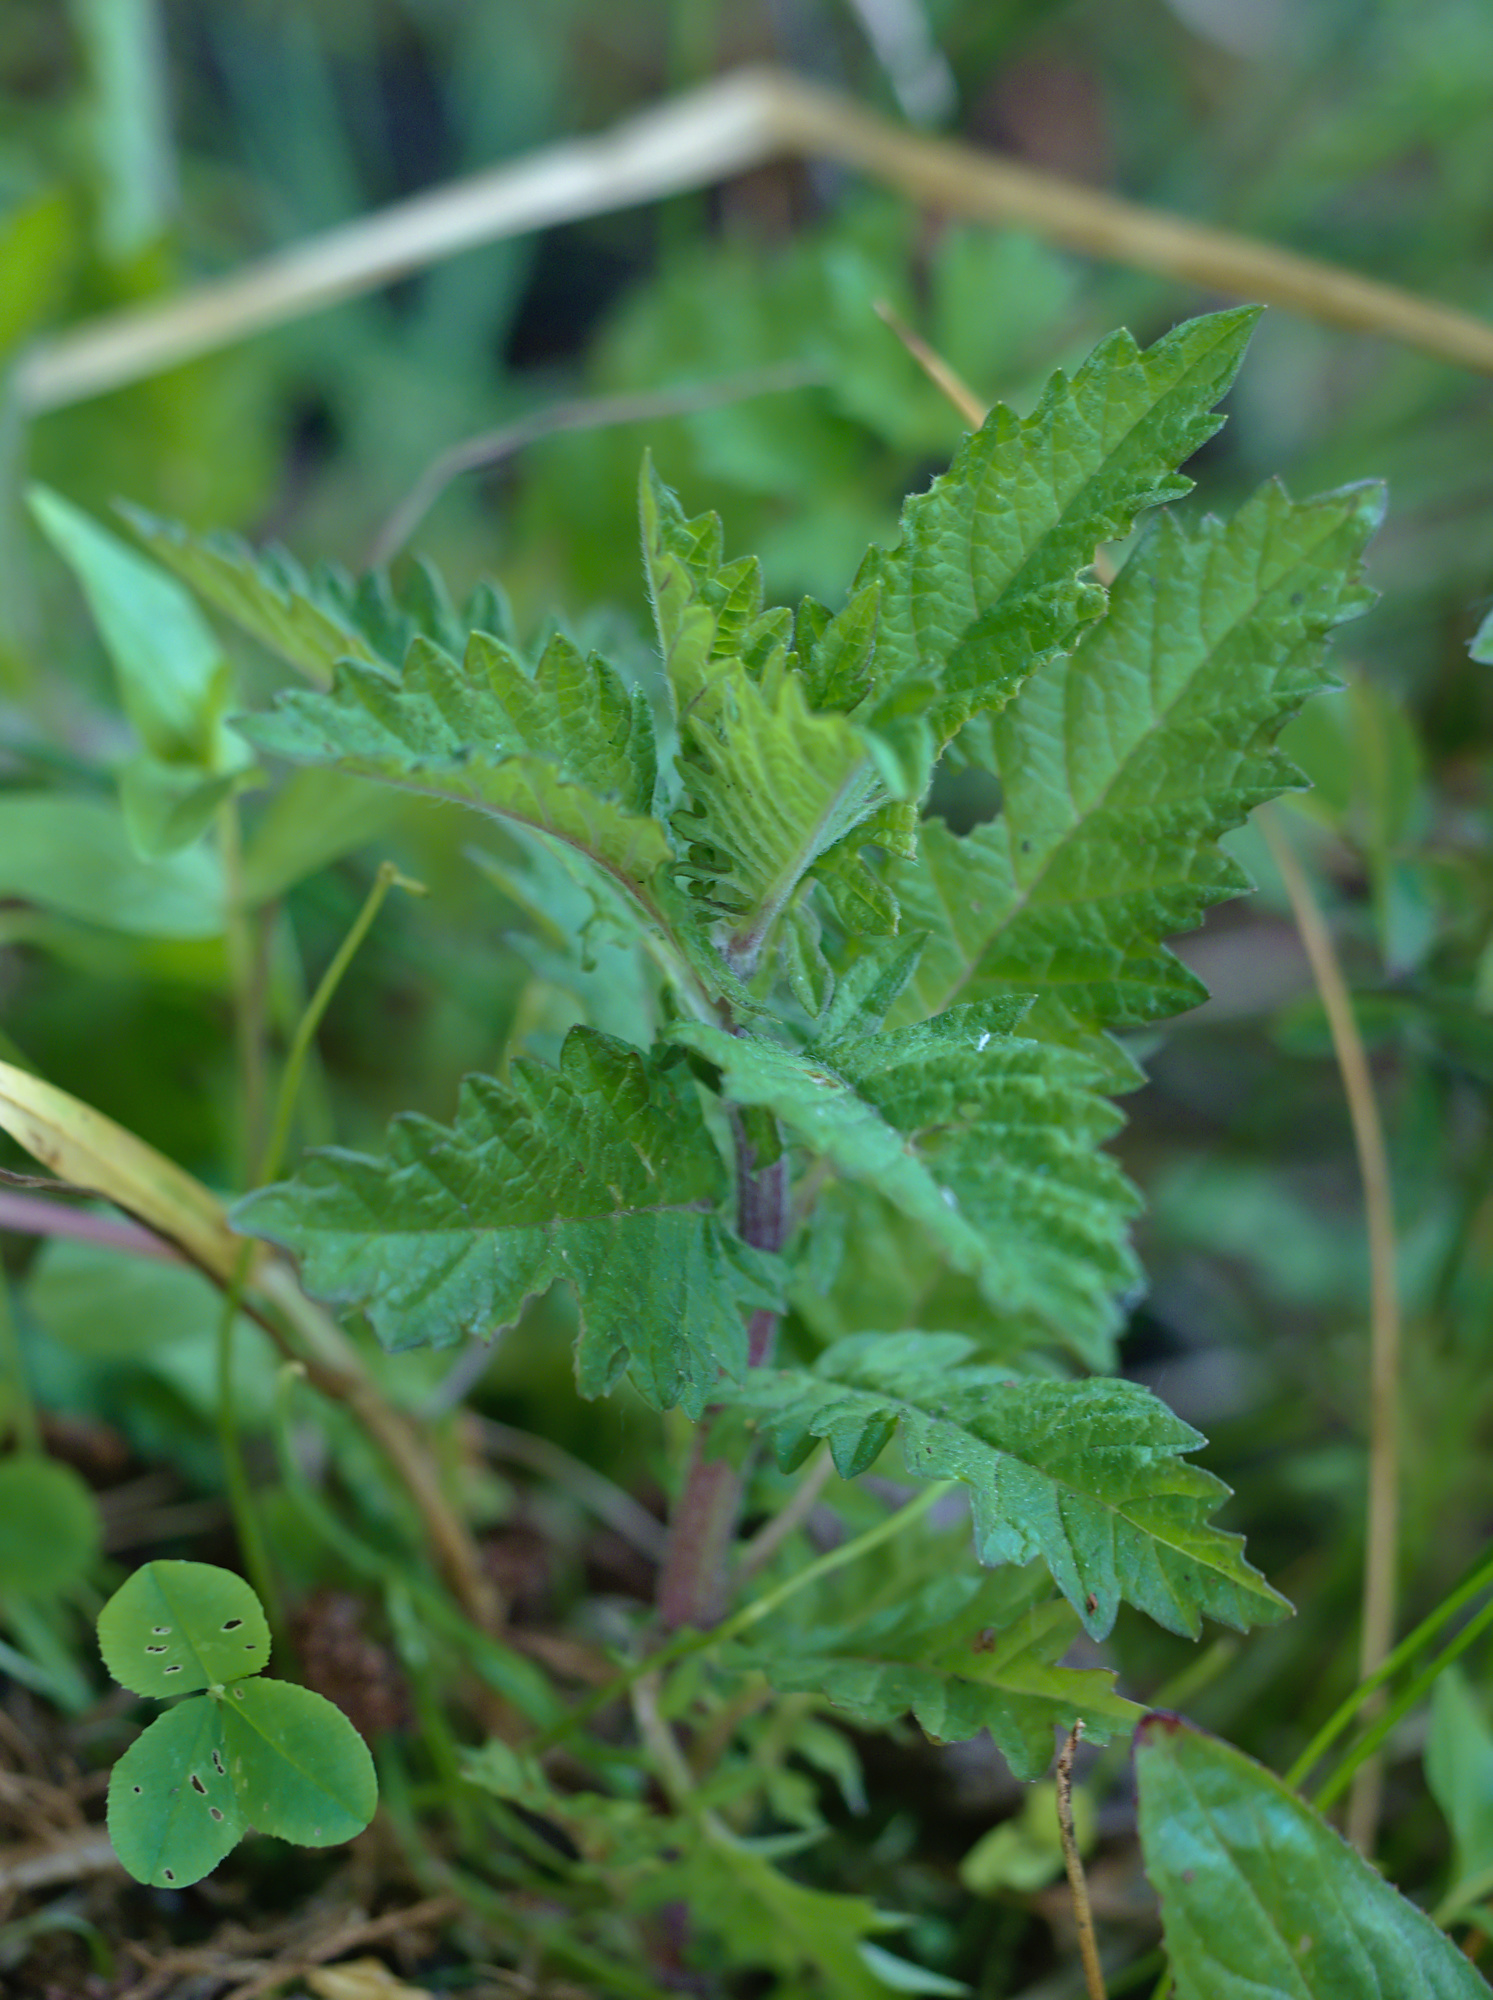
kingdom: Plantae
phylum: Tracheophyta
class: Magnoliopsida
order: Lamiales
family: Lamiaceae
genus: Lycopus
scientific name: Lycopus europaeus
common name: European bugleweed
